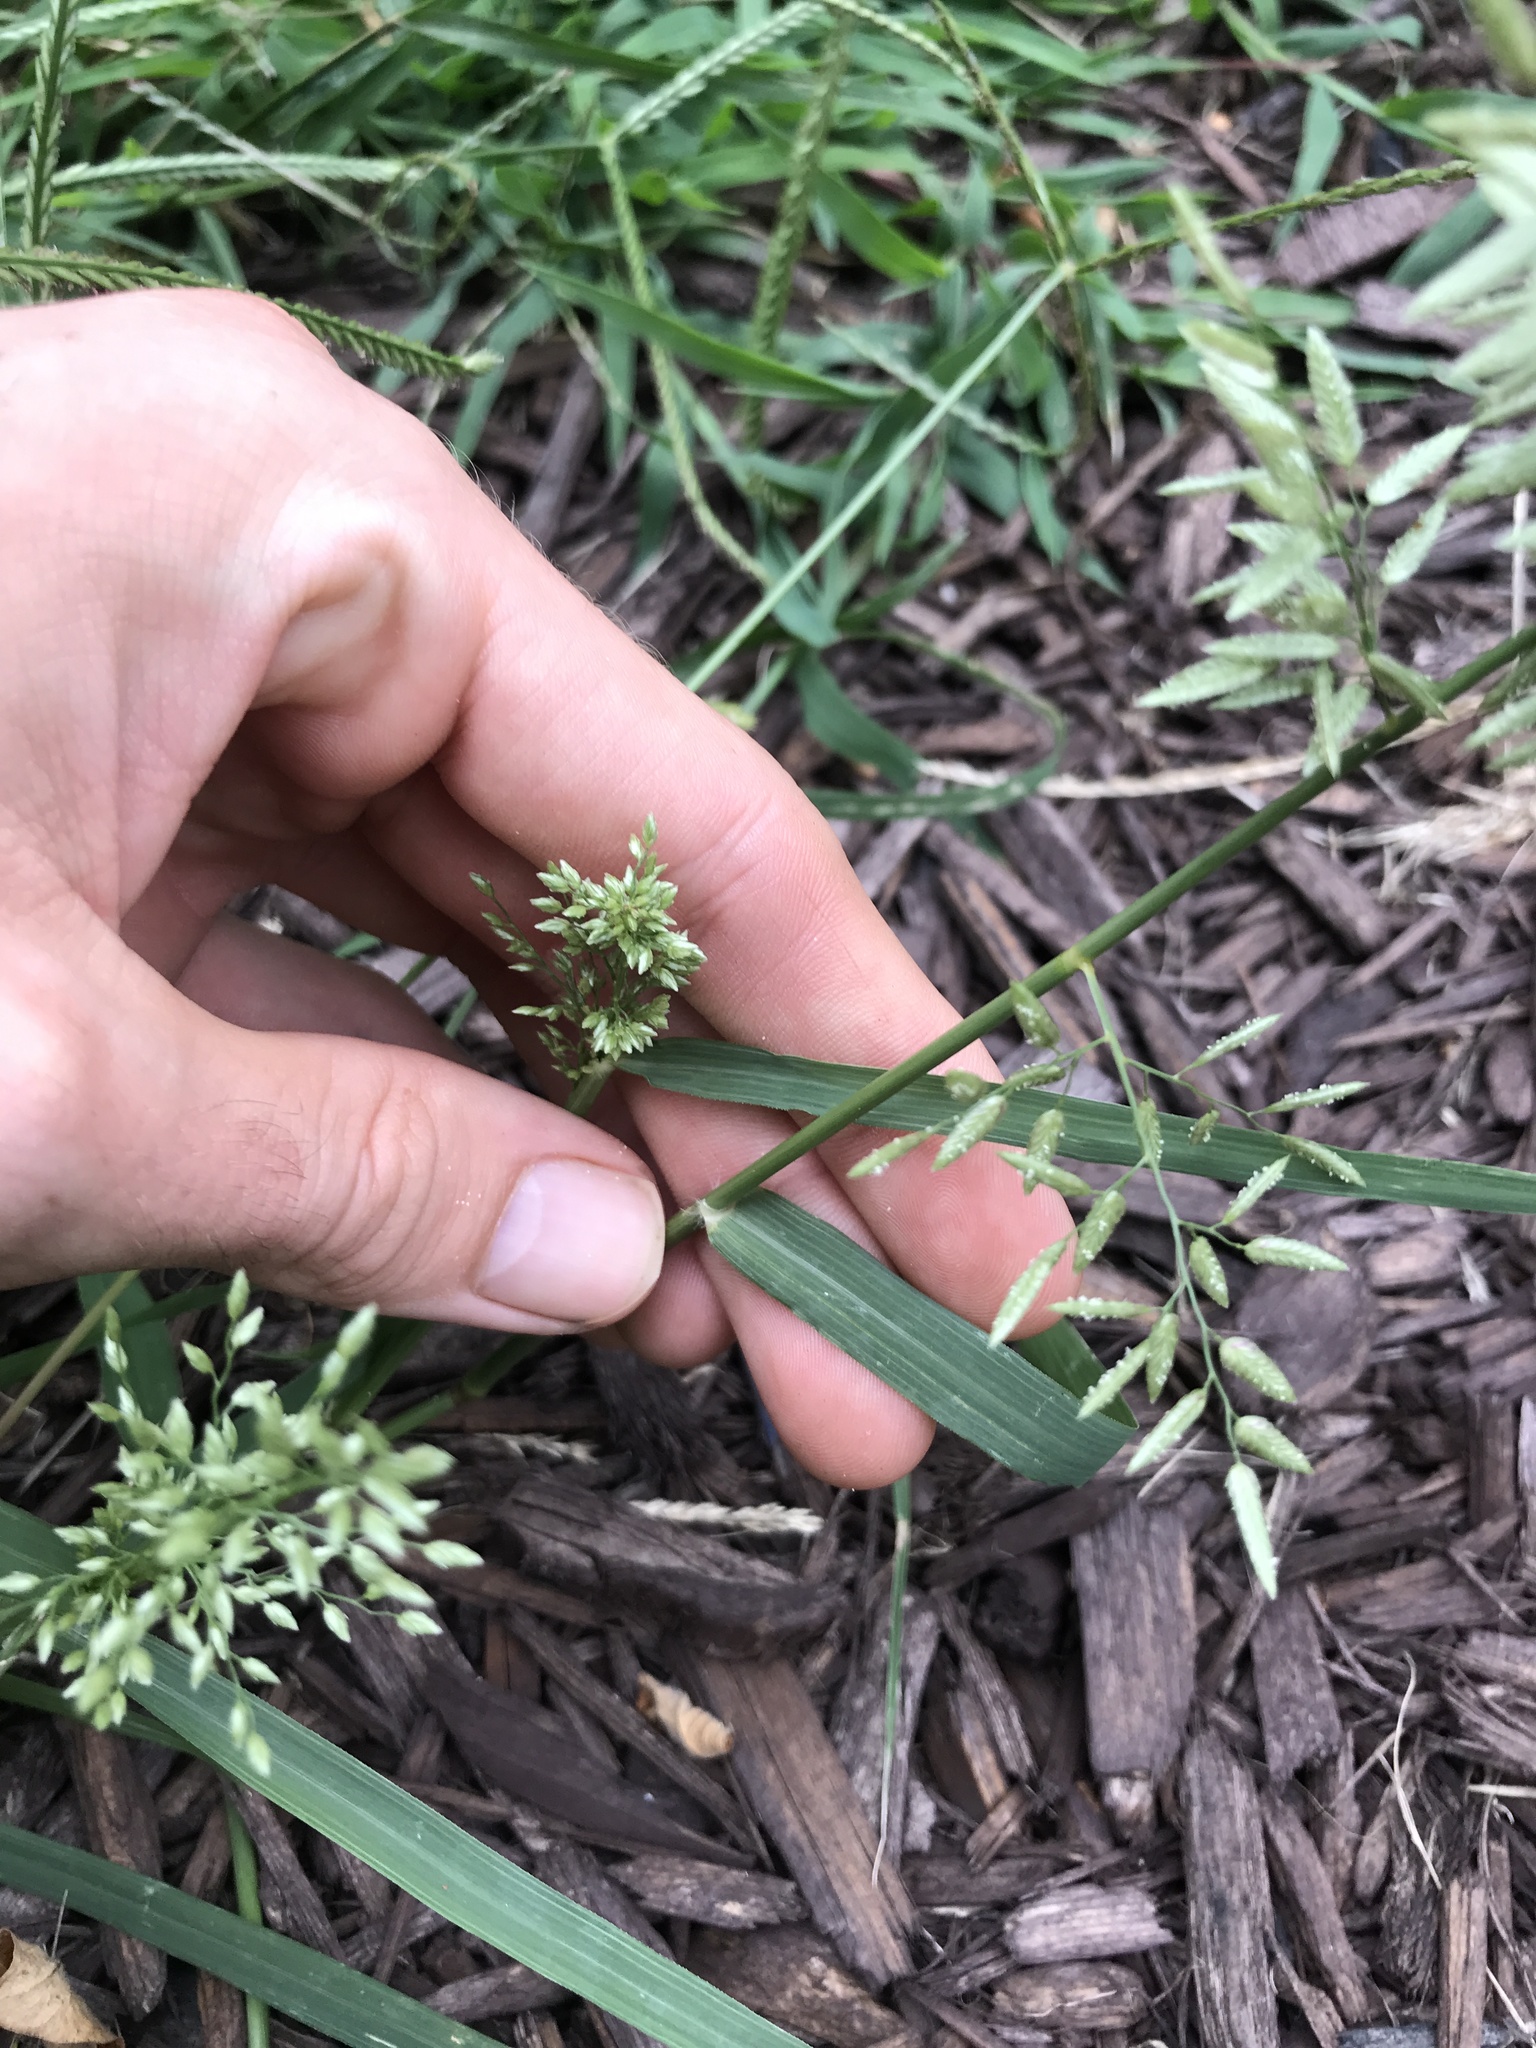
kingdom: Plantae
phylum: Tracheophyta
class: Liliopsida
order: Poales
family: Poaceae
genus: Eragrostis
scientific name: Eragrostis cilianensis
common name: Stinkgrass
